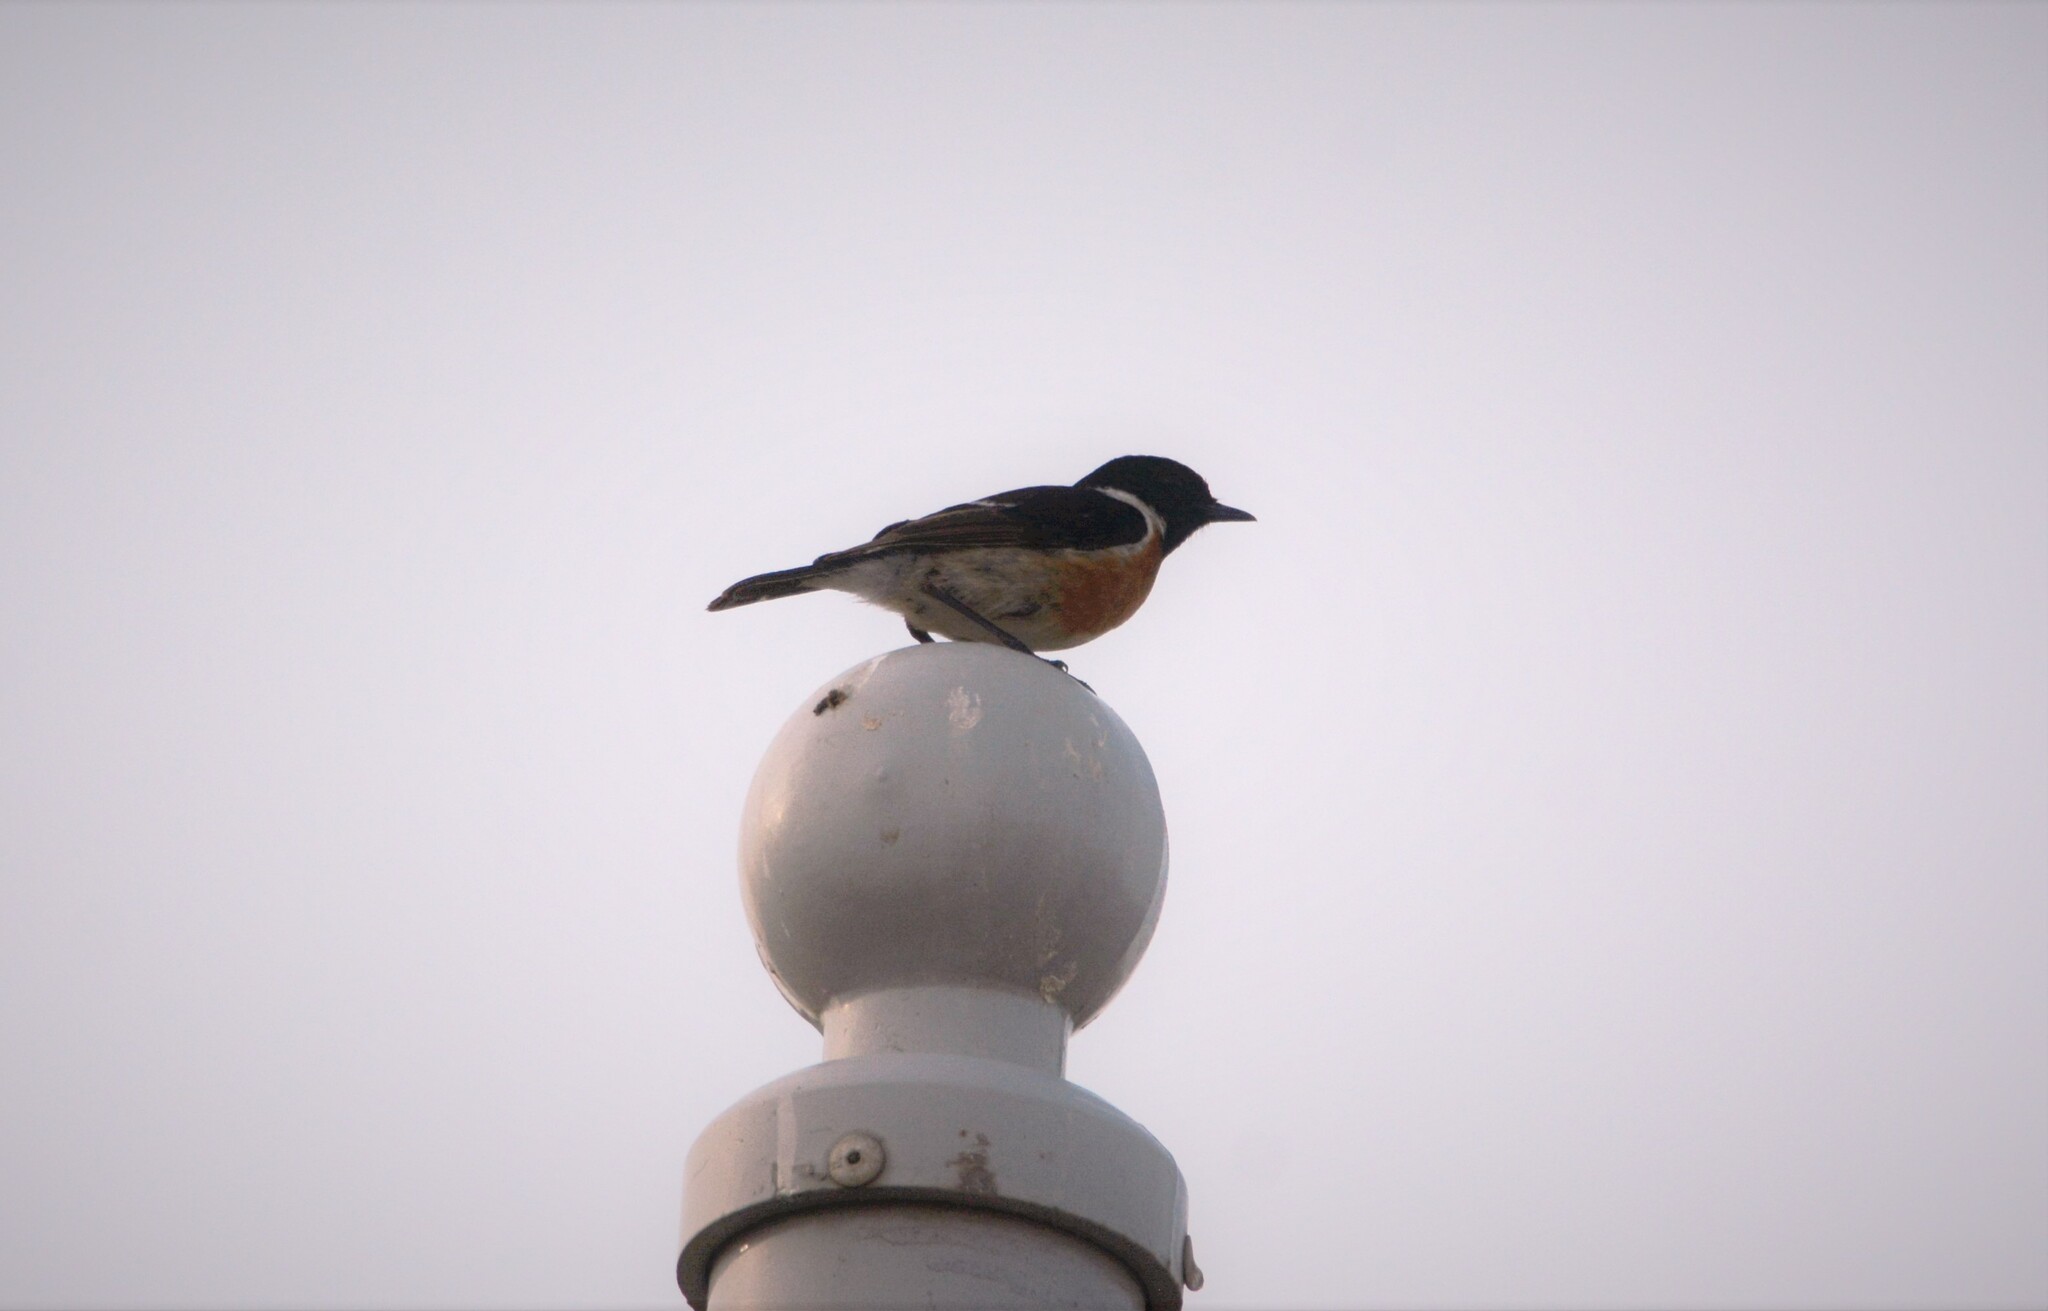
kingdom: Animalia
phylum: Chordata
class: Aves
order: Passeriformes
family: Muscicapidae
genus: Saxicola
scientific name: Saxicola rubicola
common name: European stonechat
